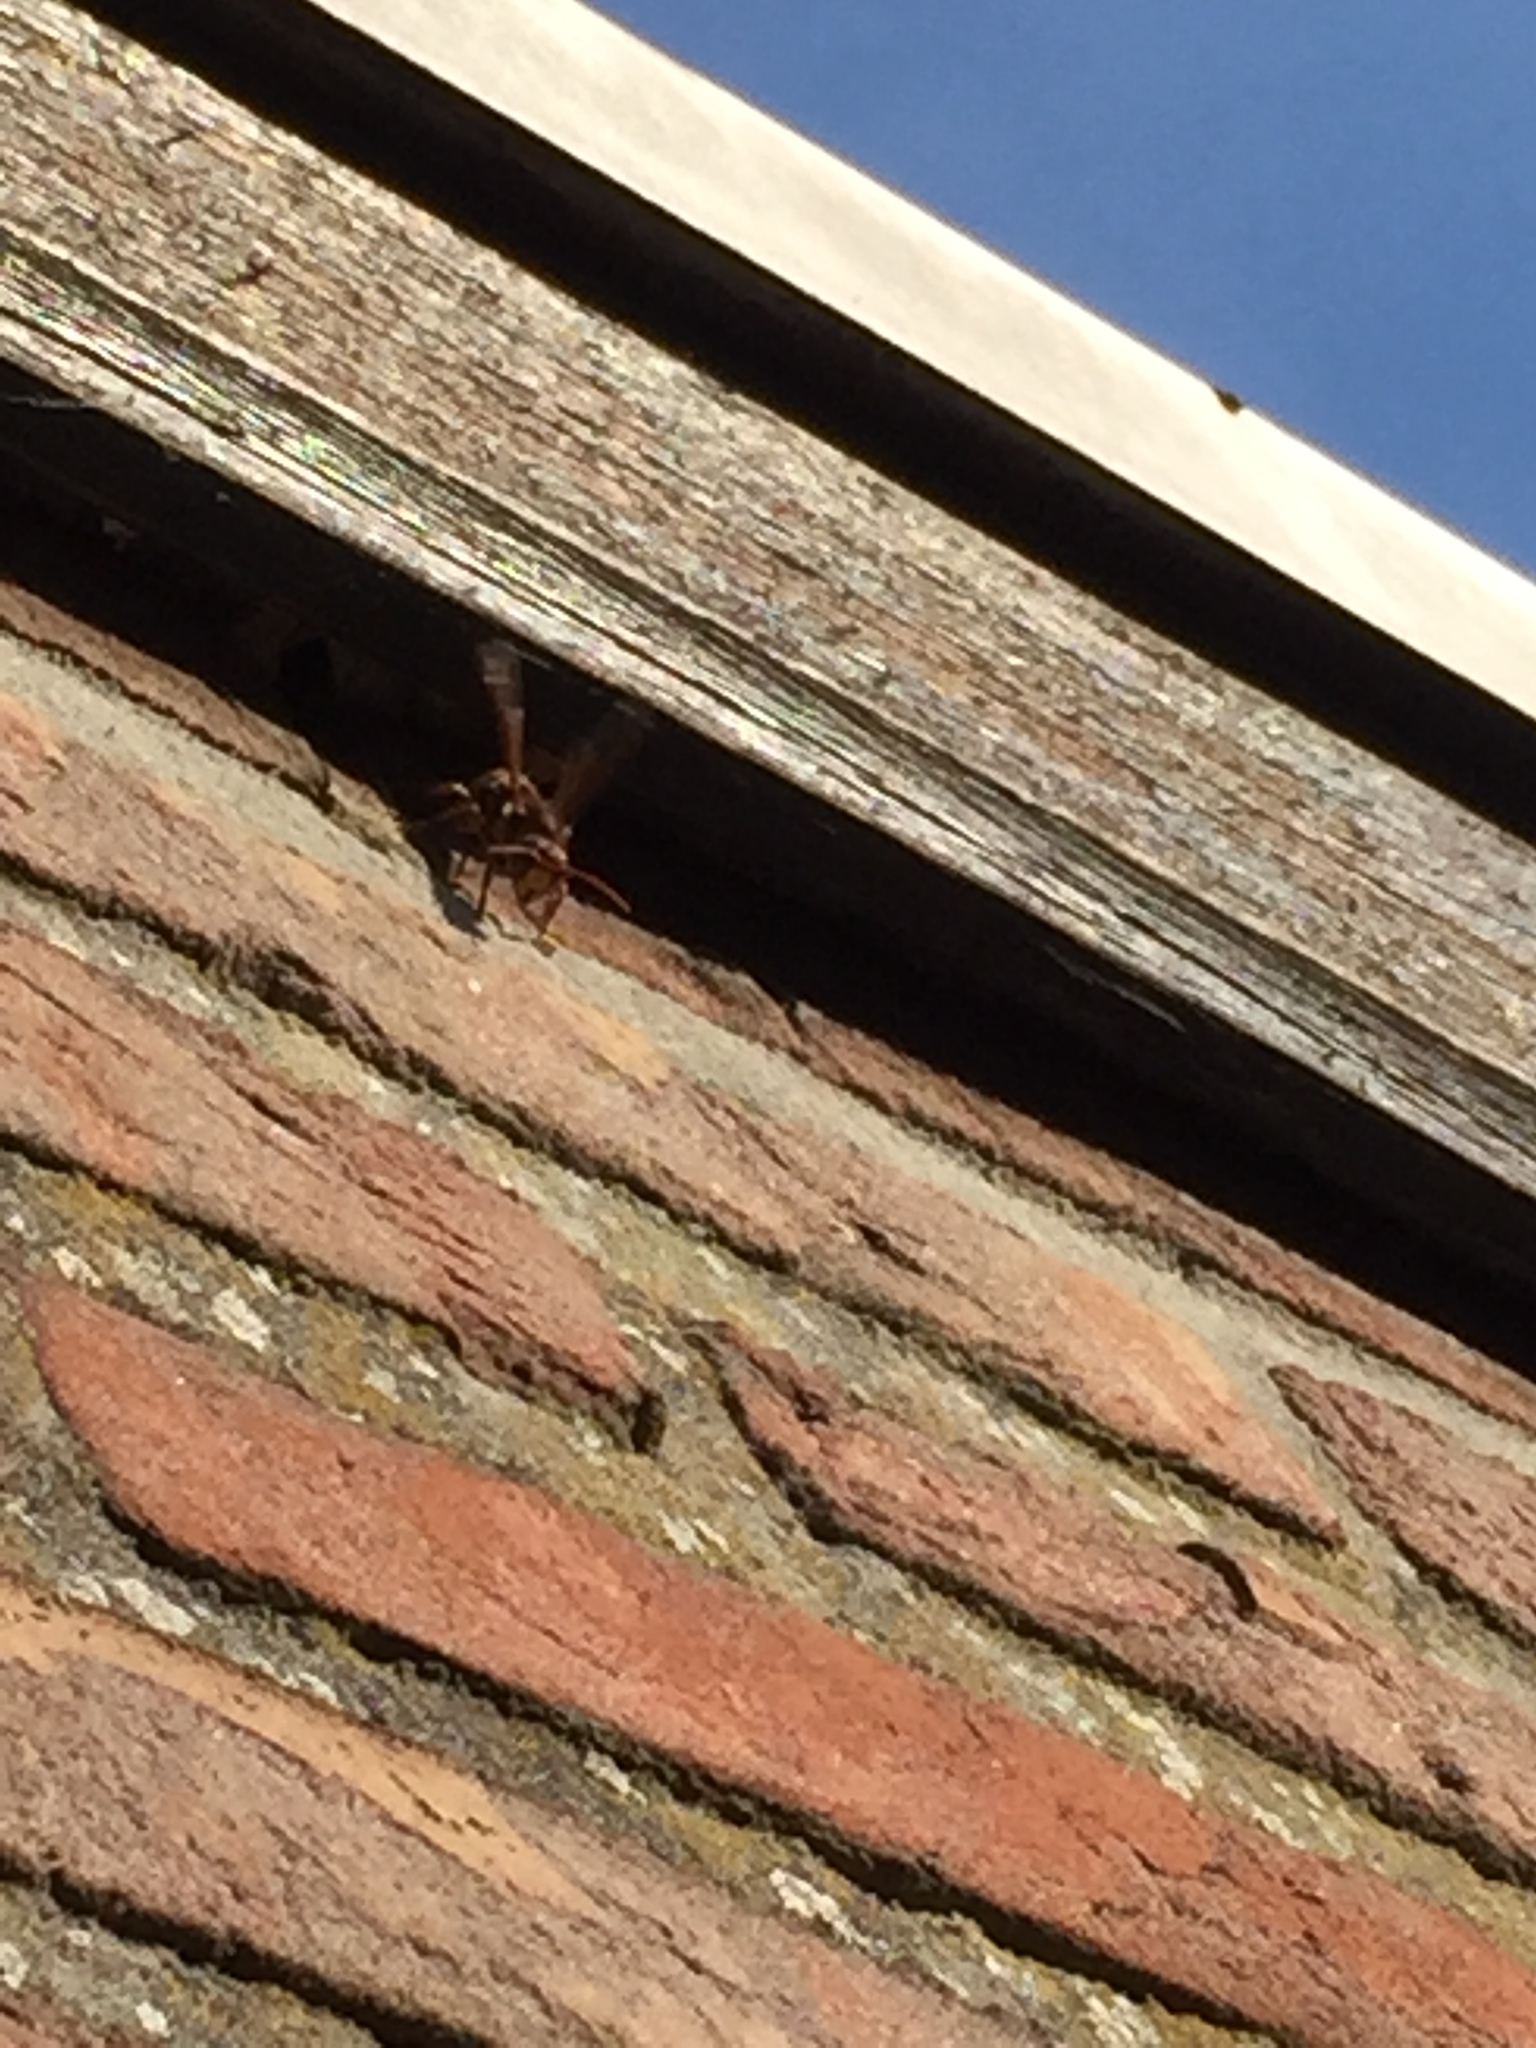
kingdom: Animalia
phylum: Arthropoda
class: Insecta
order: Hymenoptera
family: Vespidae
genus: Vespa
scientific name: Vespa crabro
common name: Hornet
